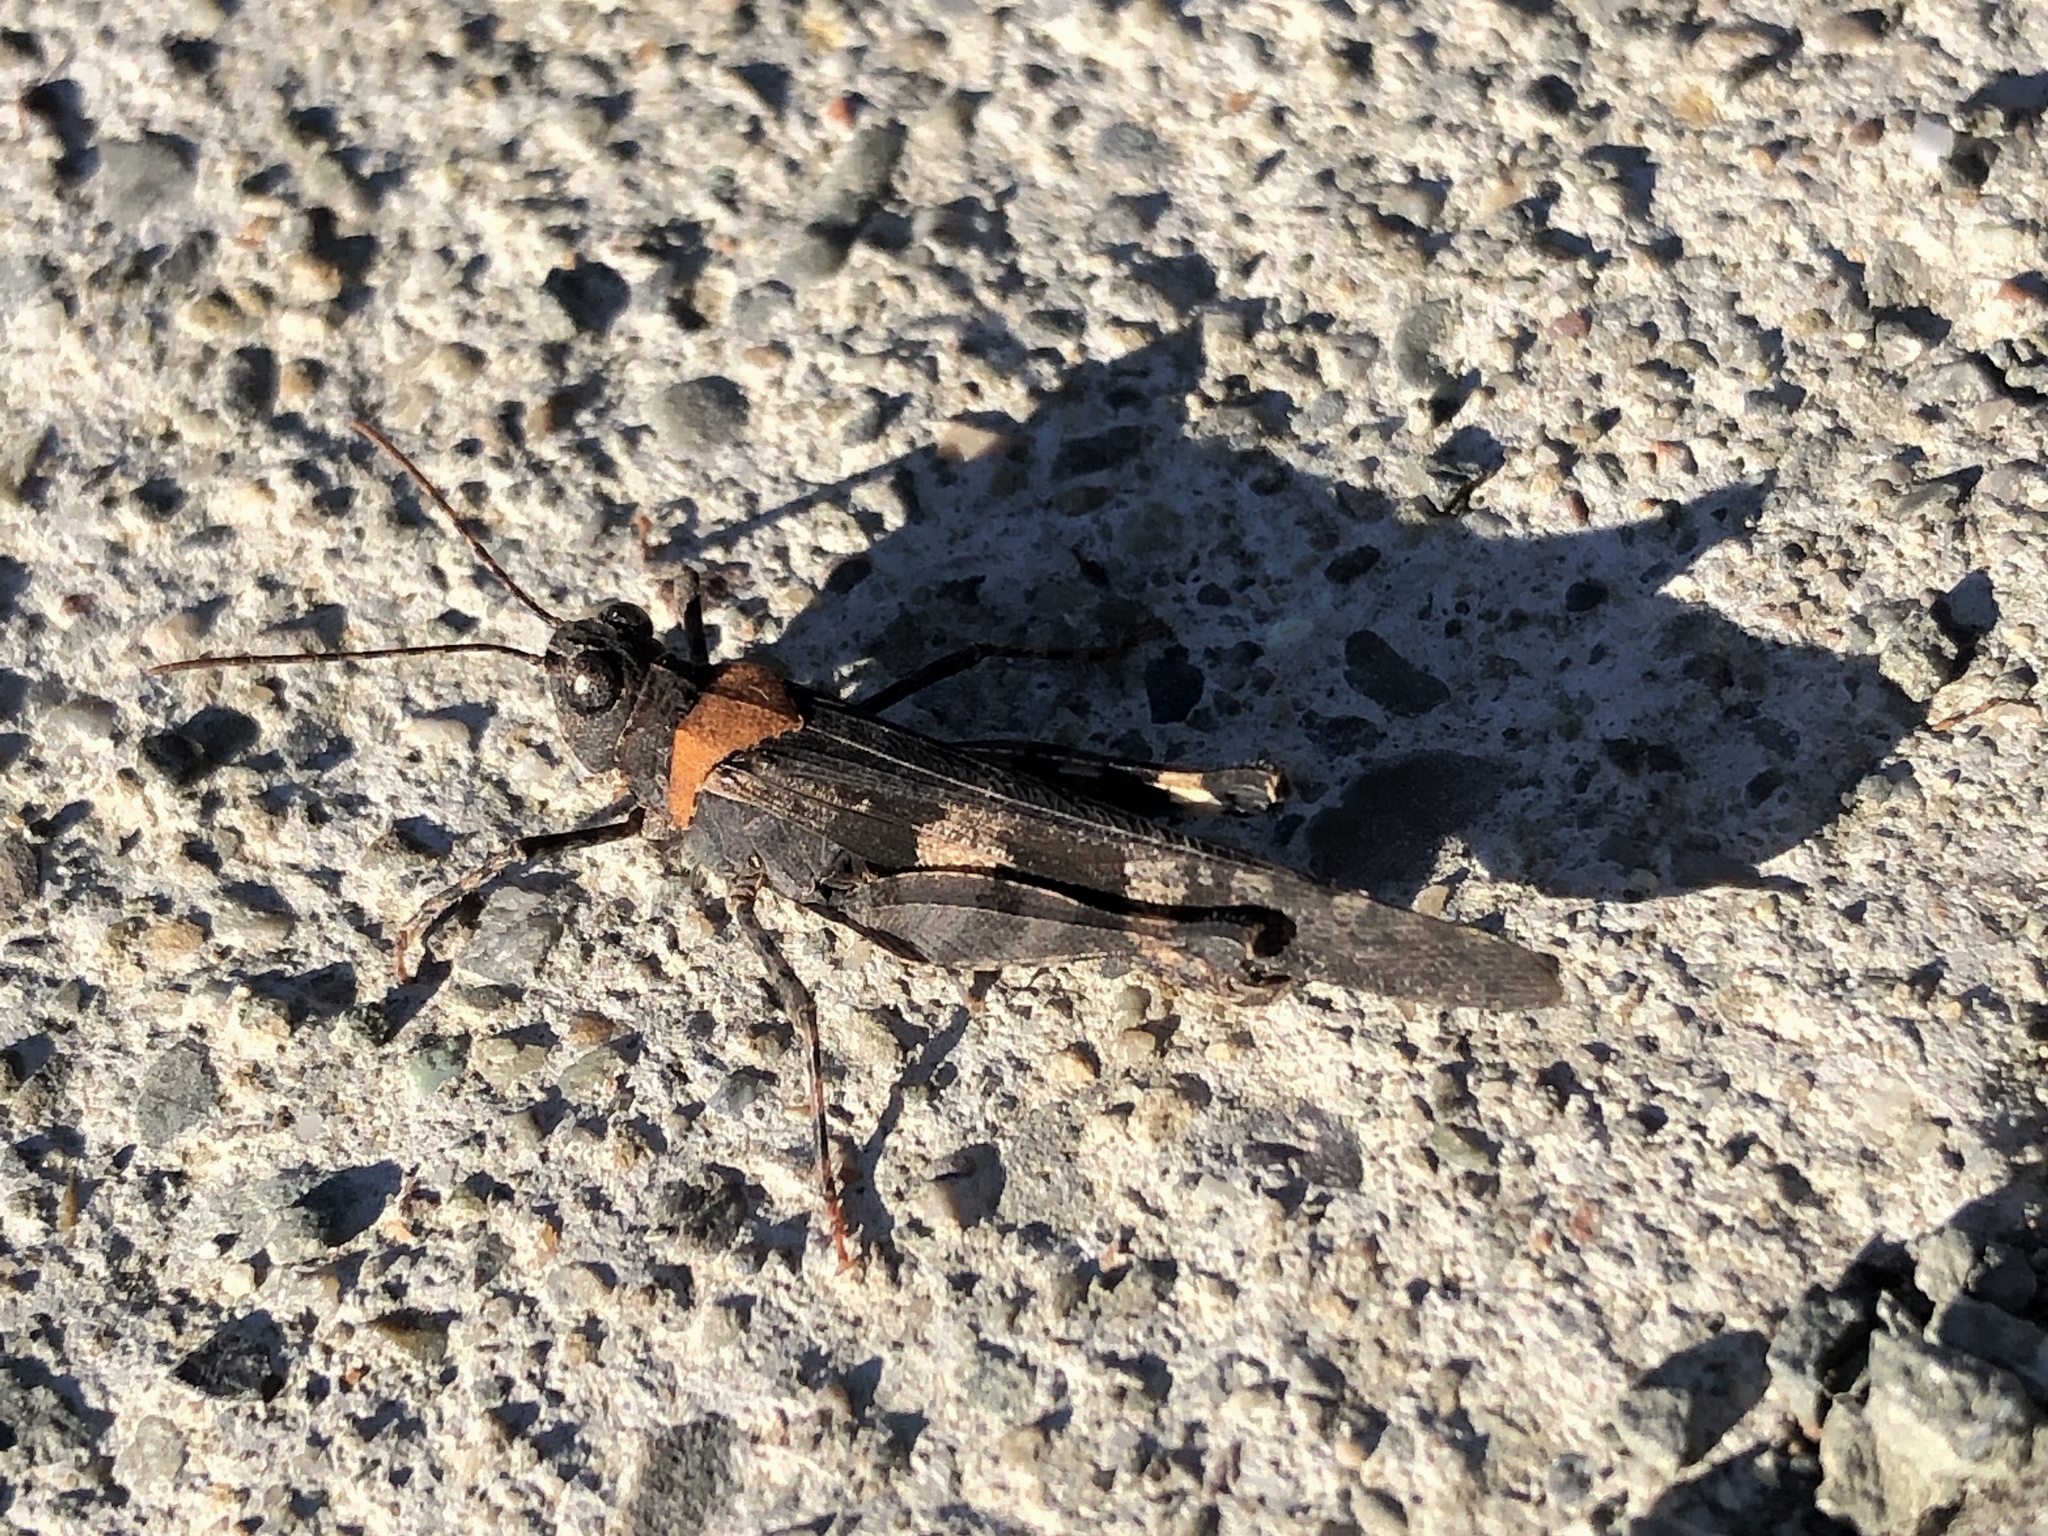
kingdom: Animalia
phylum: Arthropoda
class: Insecta
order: Orthoptera
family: Acrididae
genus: Trimerotropis
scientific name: Trimerotropis fontana
